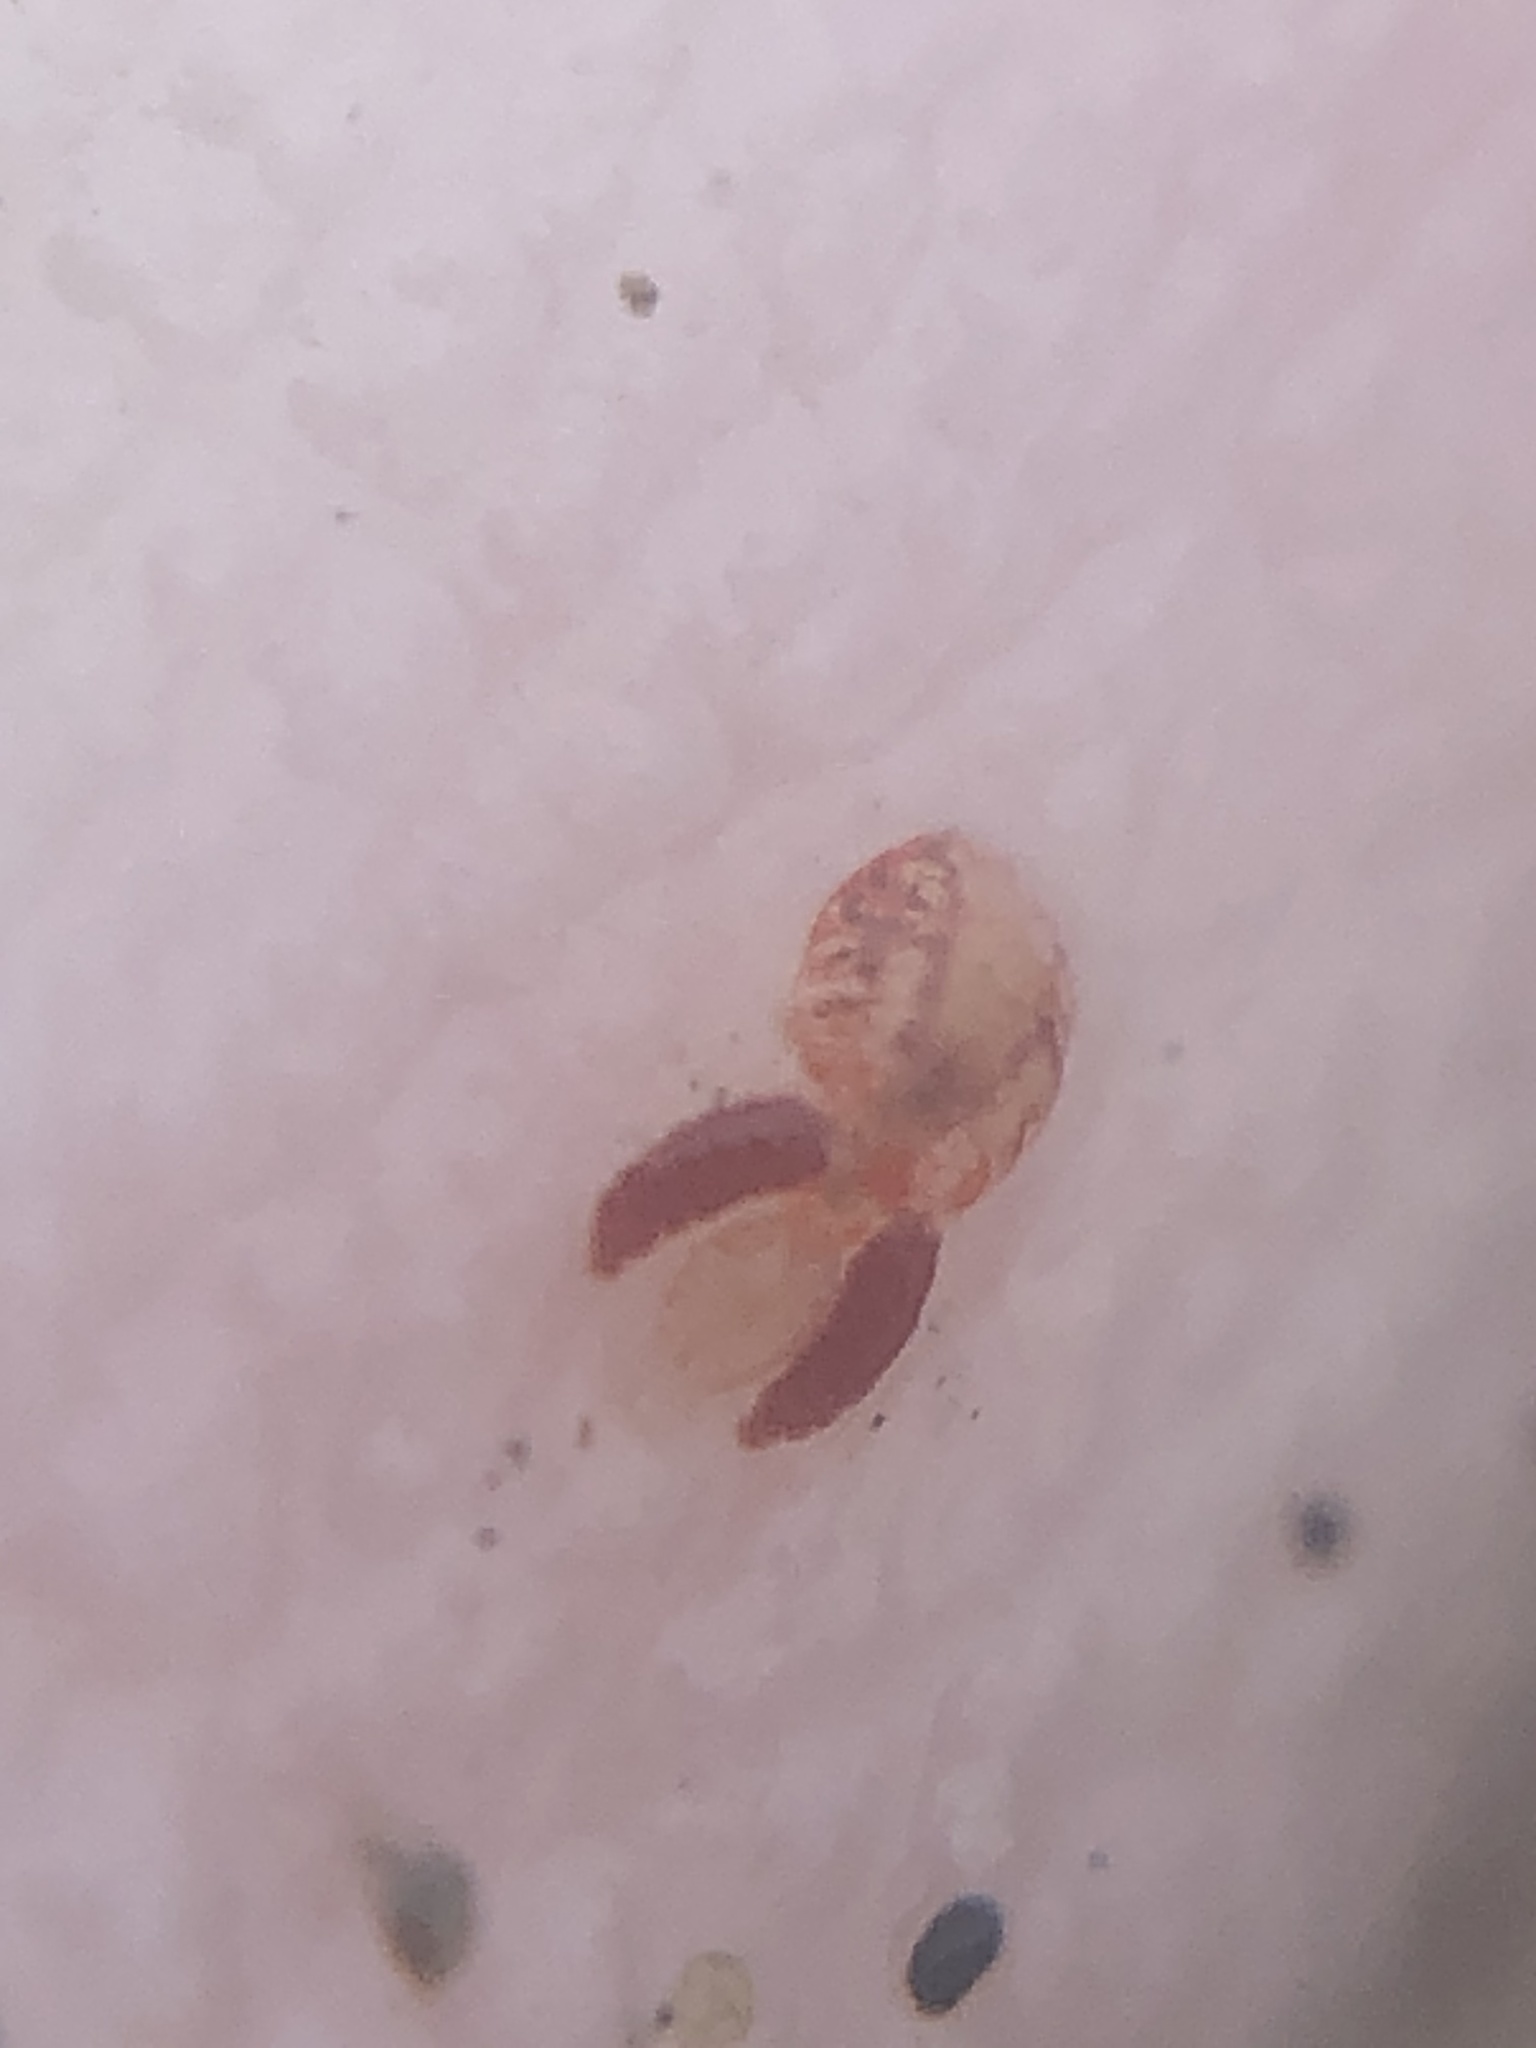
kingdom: Animalia
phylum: Arthropoda
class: Copepoda
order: Cyclopoida
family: Clausidiidae
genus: Clausidium
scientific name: Clausidium vancouverense
